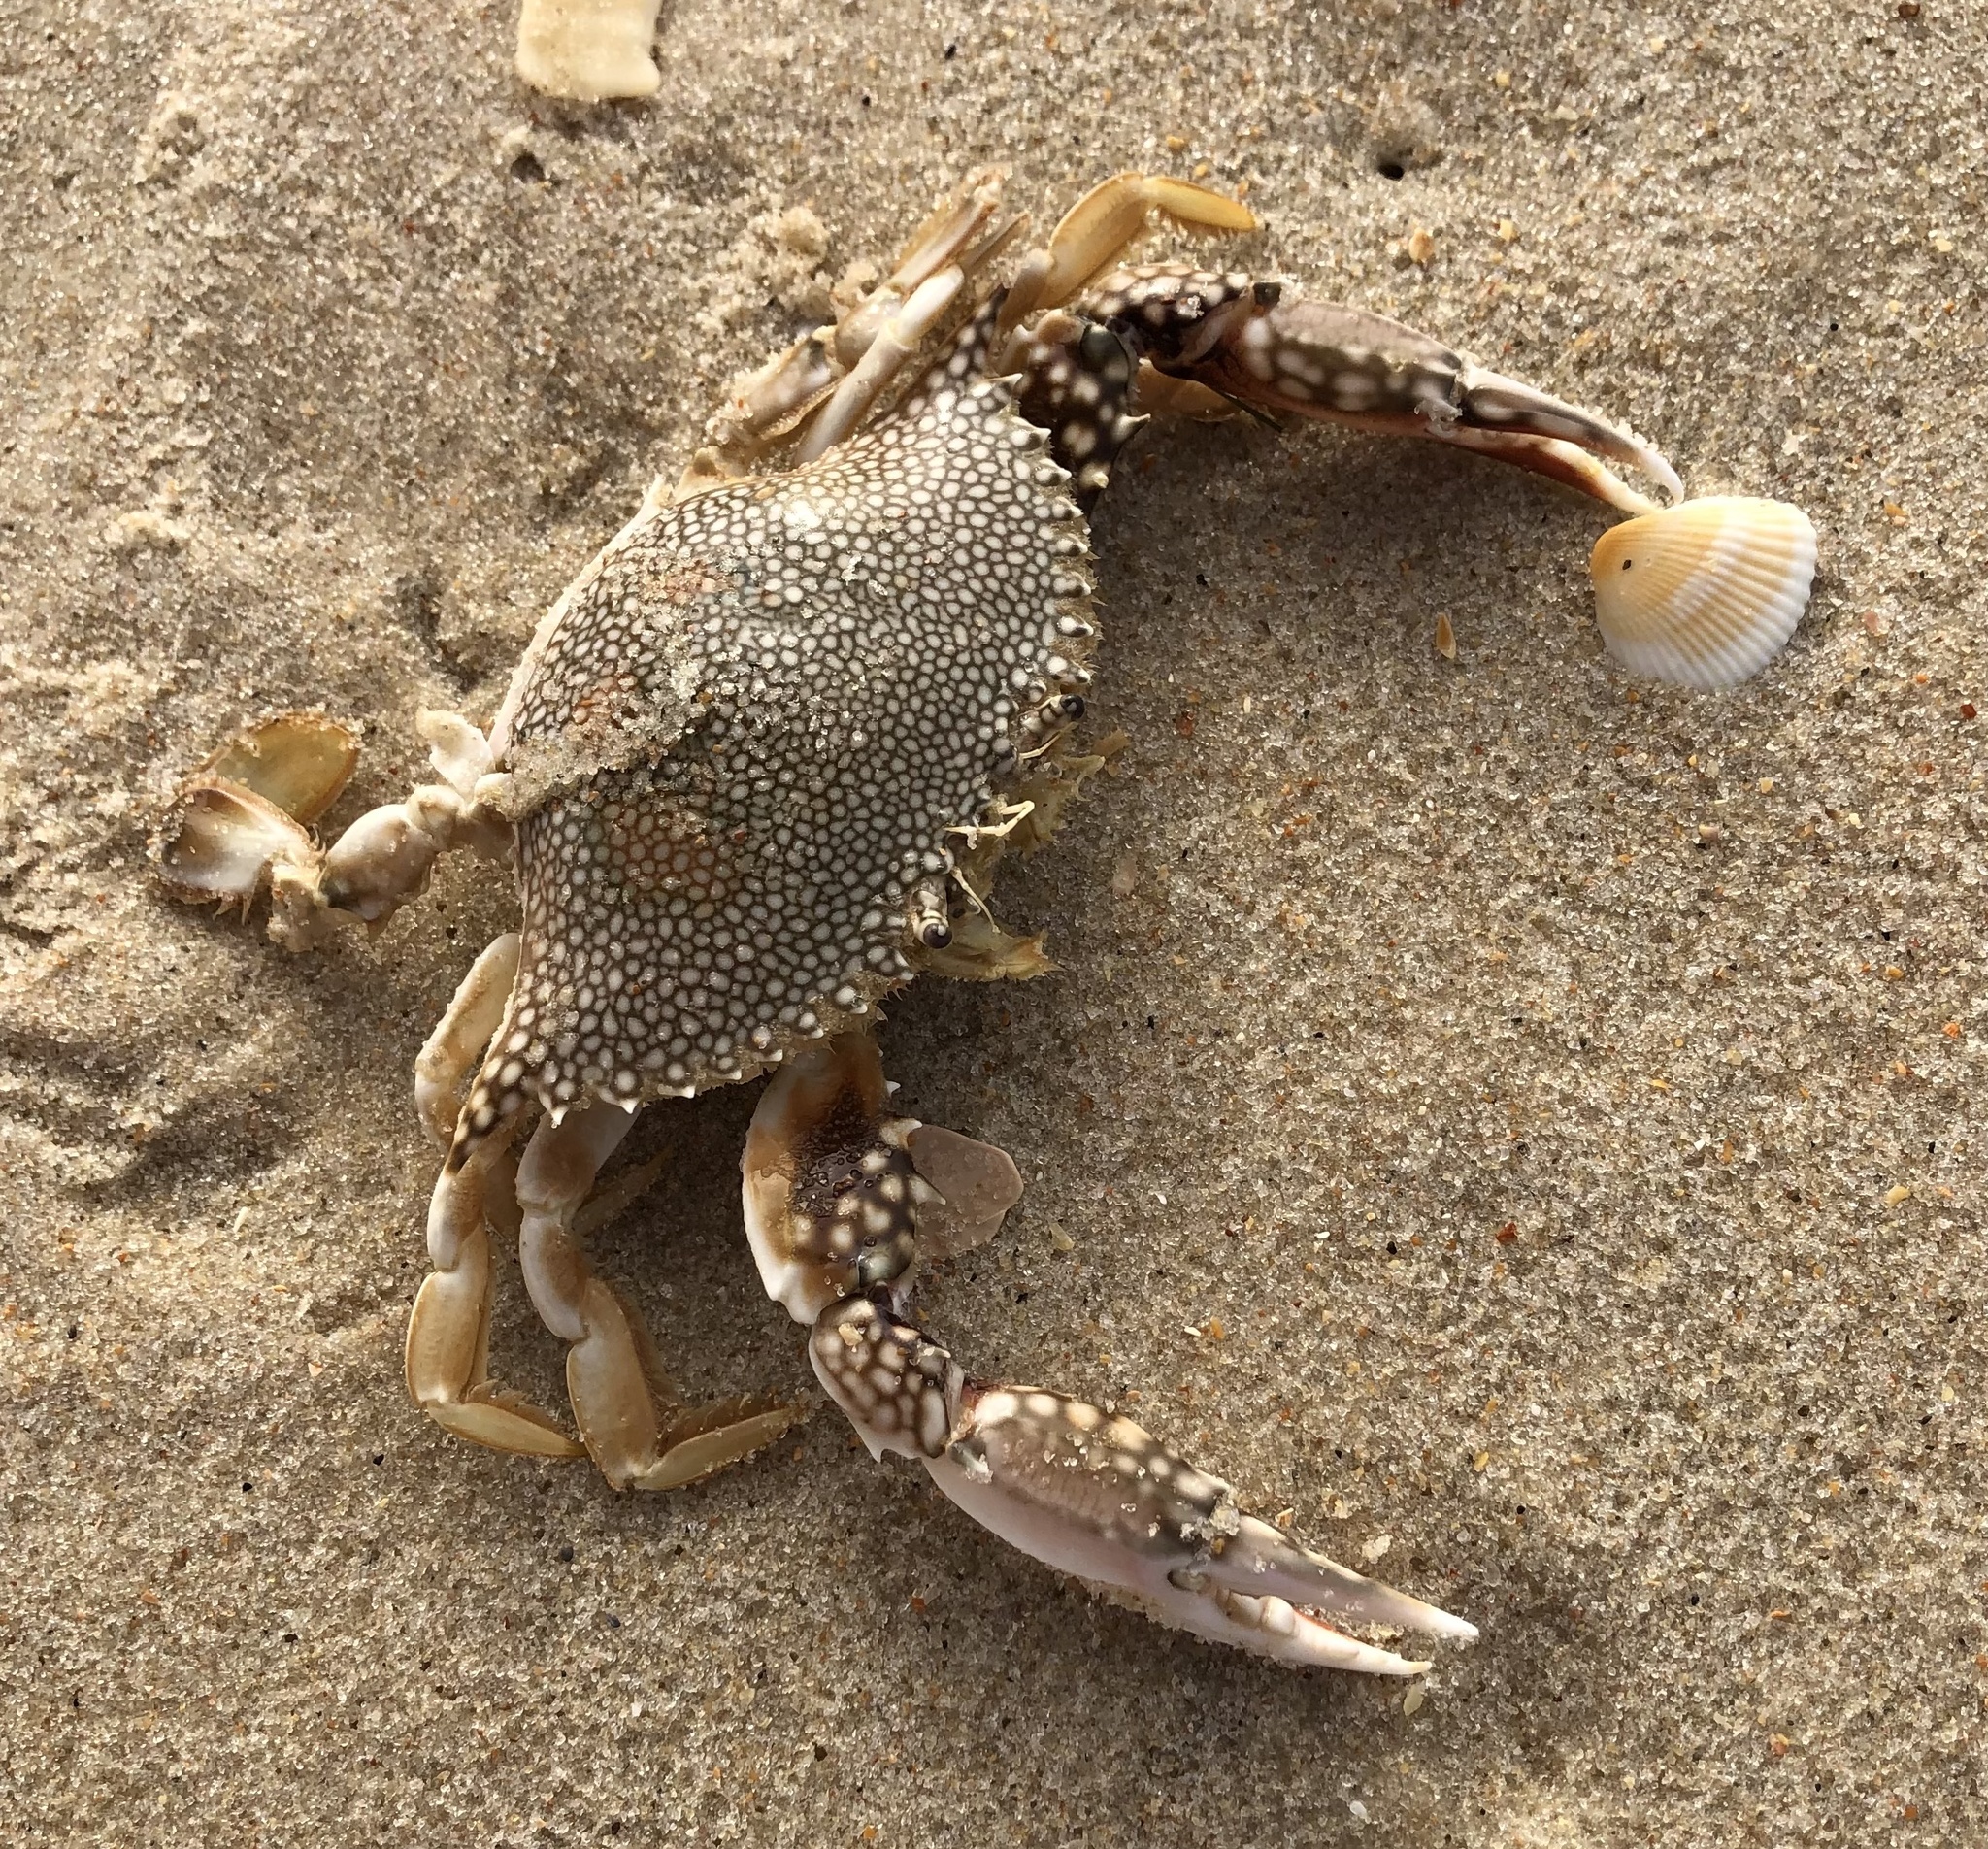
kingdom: Animalia
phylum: Arthropoda
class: Malacostraca
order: Decapoda
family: Portunidae
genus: Arenaeus
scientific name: Arenaeus cribrarius
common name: Speckled crab
